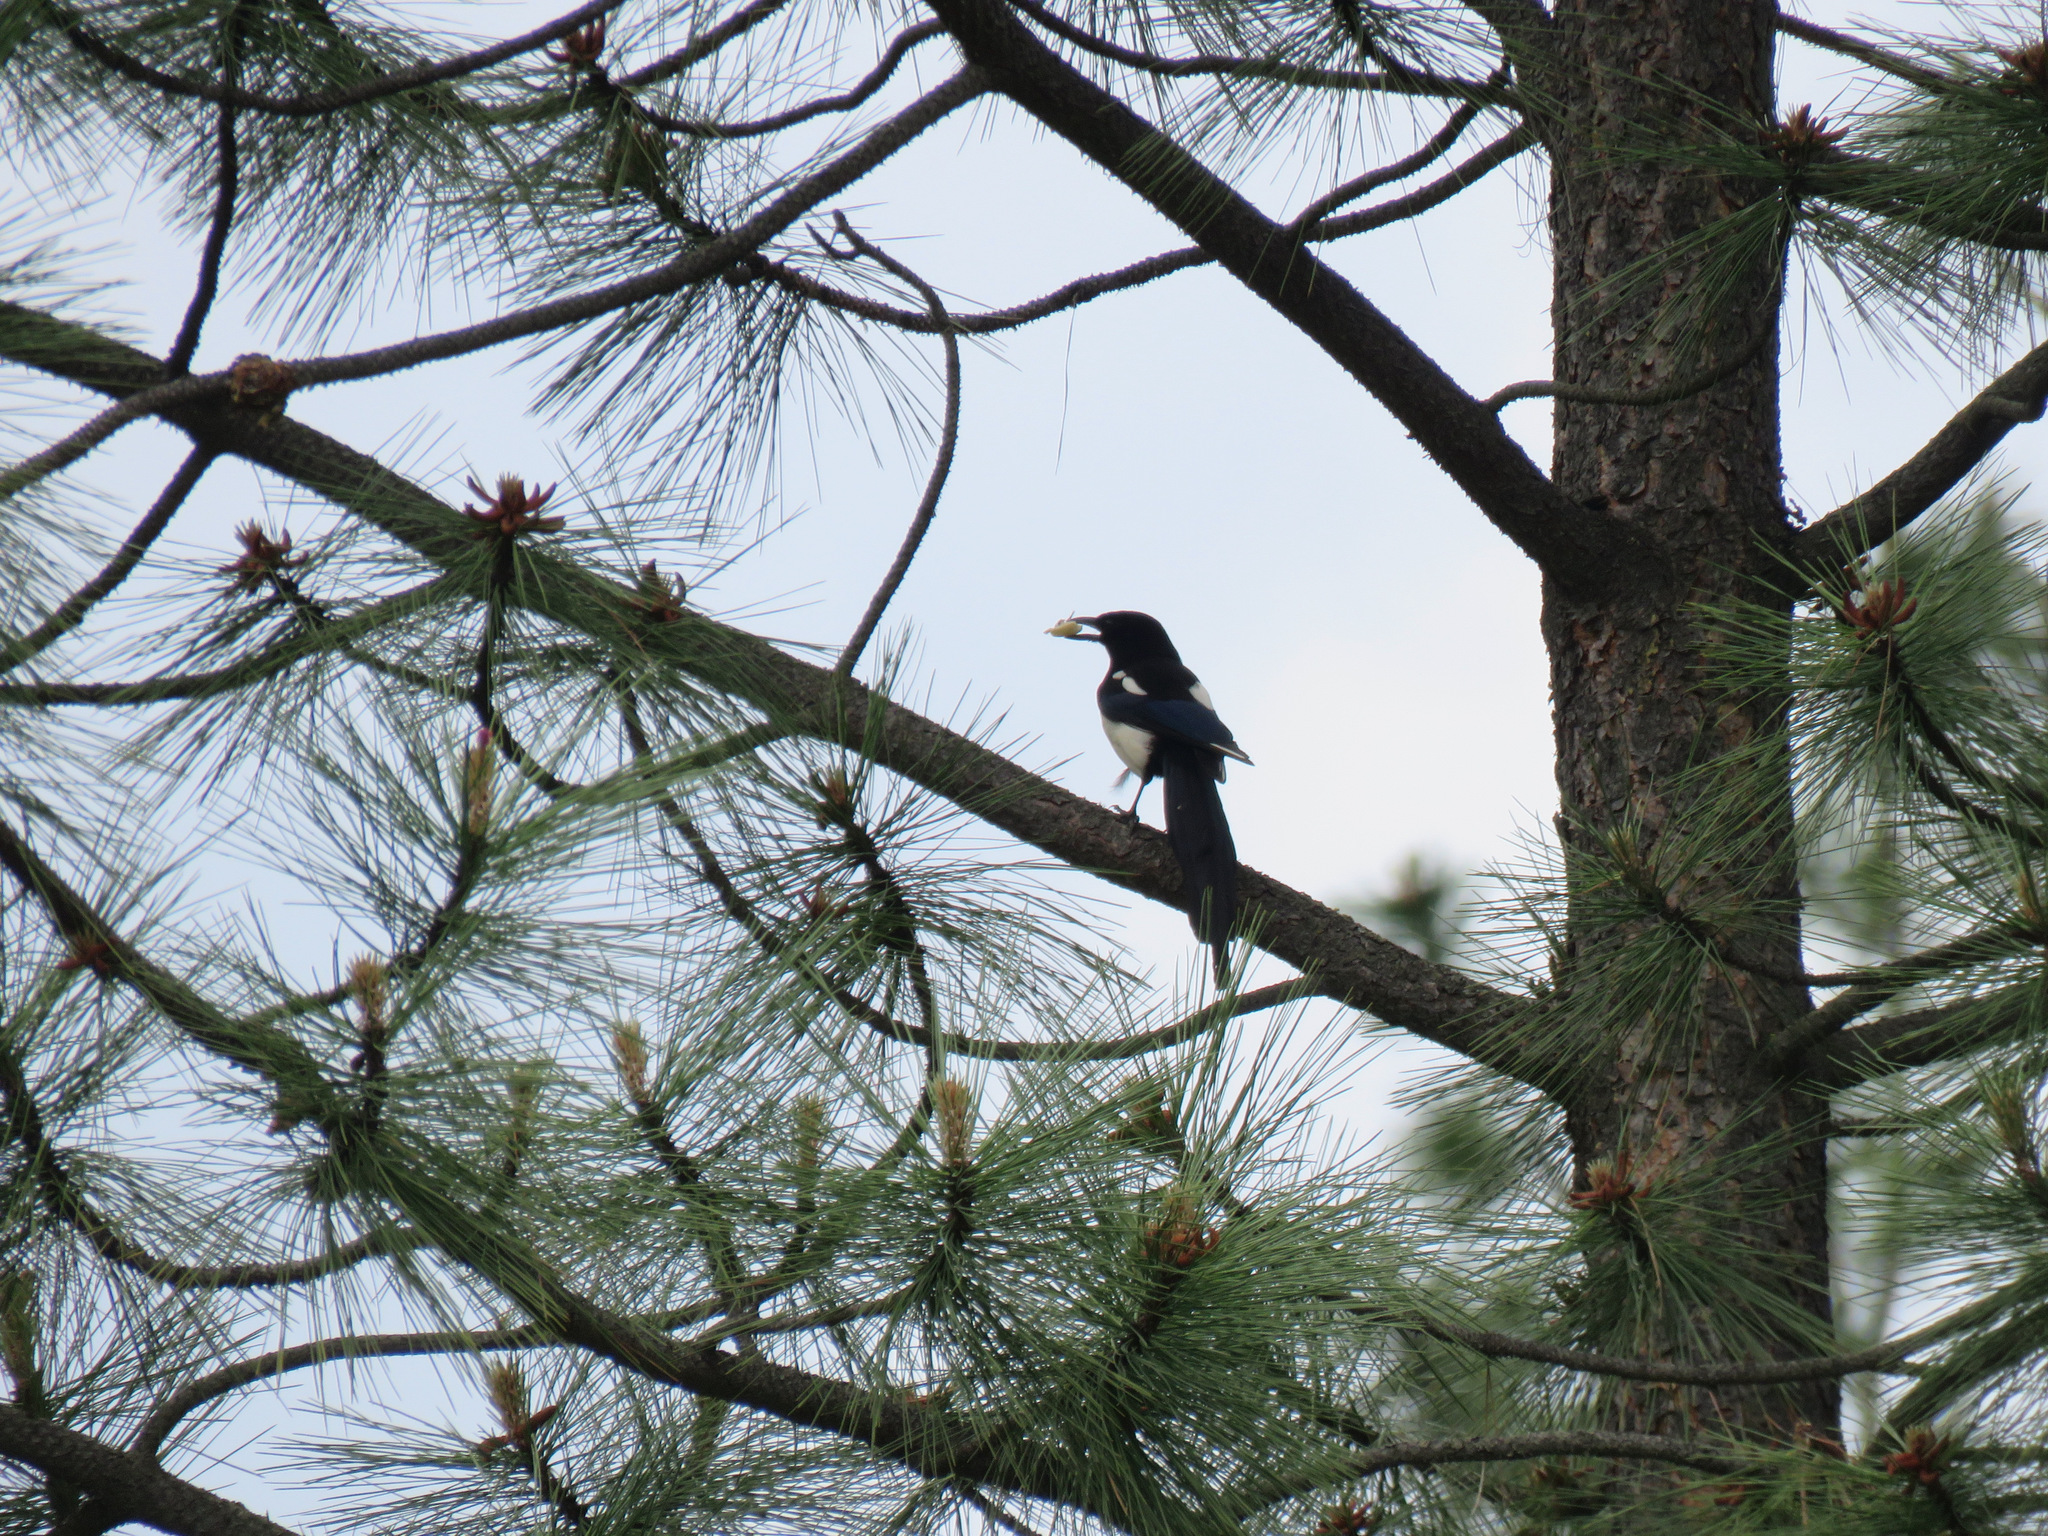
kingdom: Animalia
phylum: Chordata
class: Aves
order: Passeriformes
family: Corvidae
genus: Pica
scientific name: Pica hudsonia
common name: Black-billed magpie
